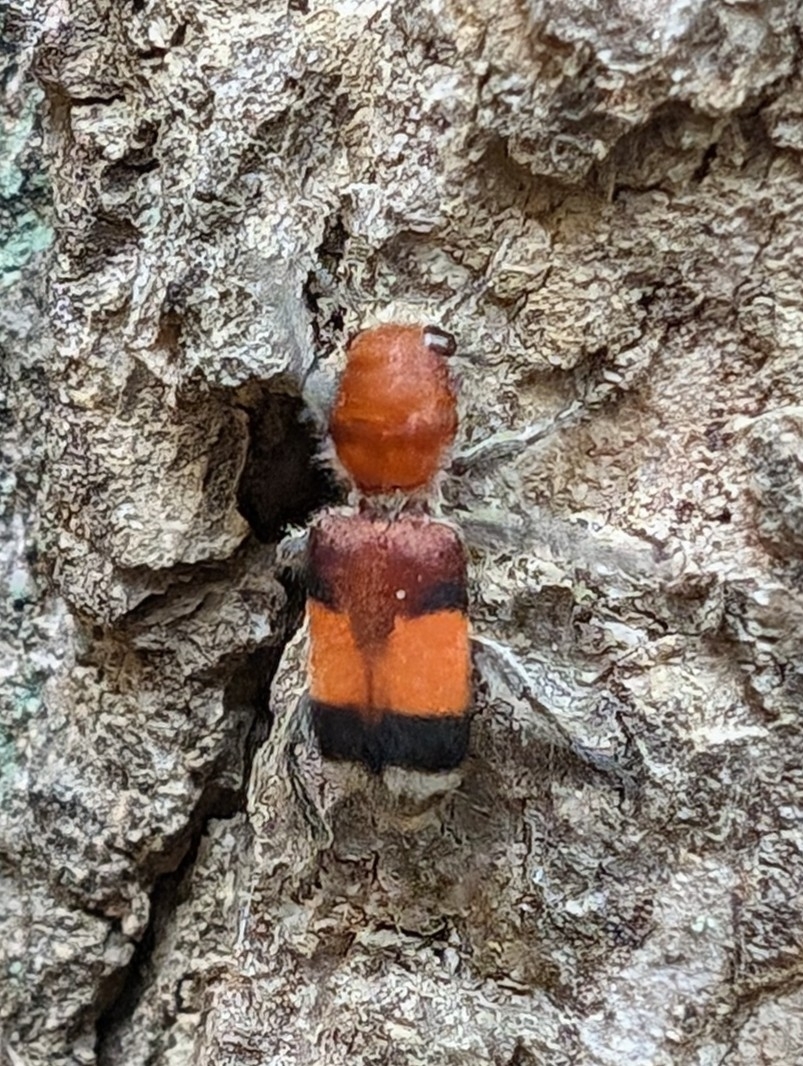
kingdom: Animalia
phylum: Arthropoda
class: Insecta
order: Coleoptera
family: Cleridae
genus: Enoclerus
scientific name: Enoclerus ichneumoneus
